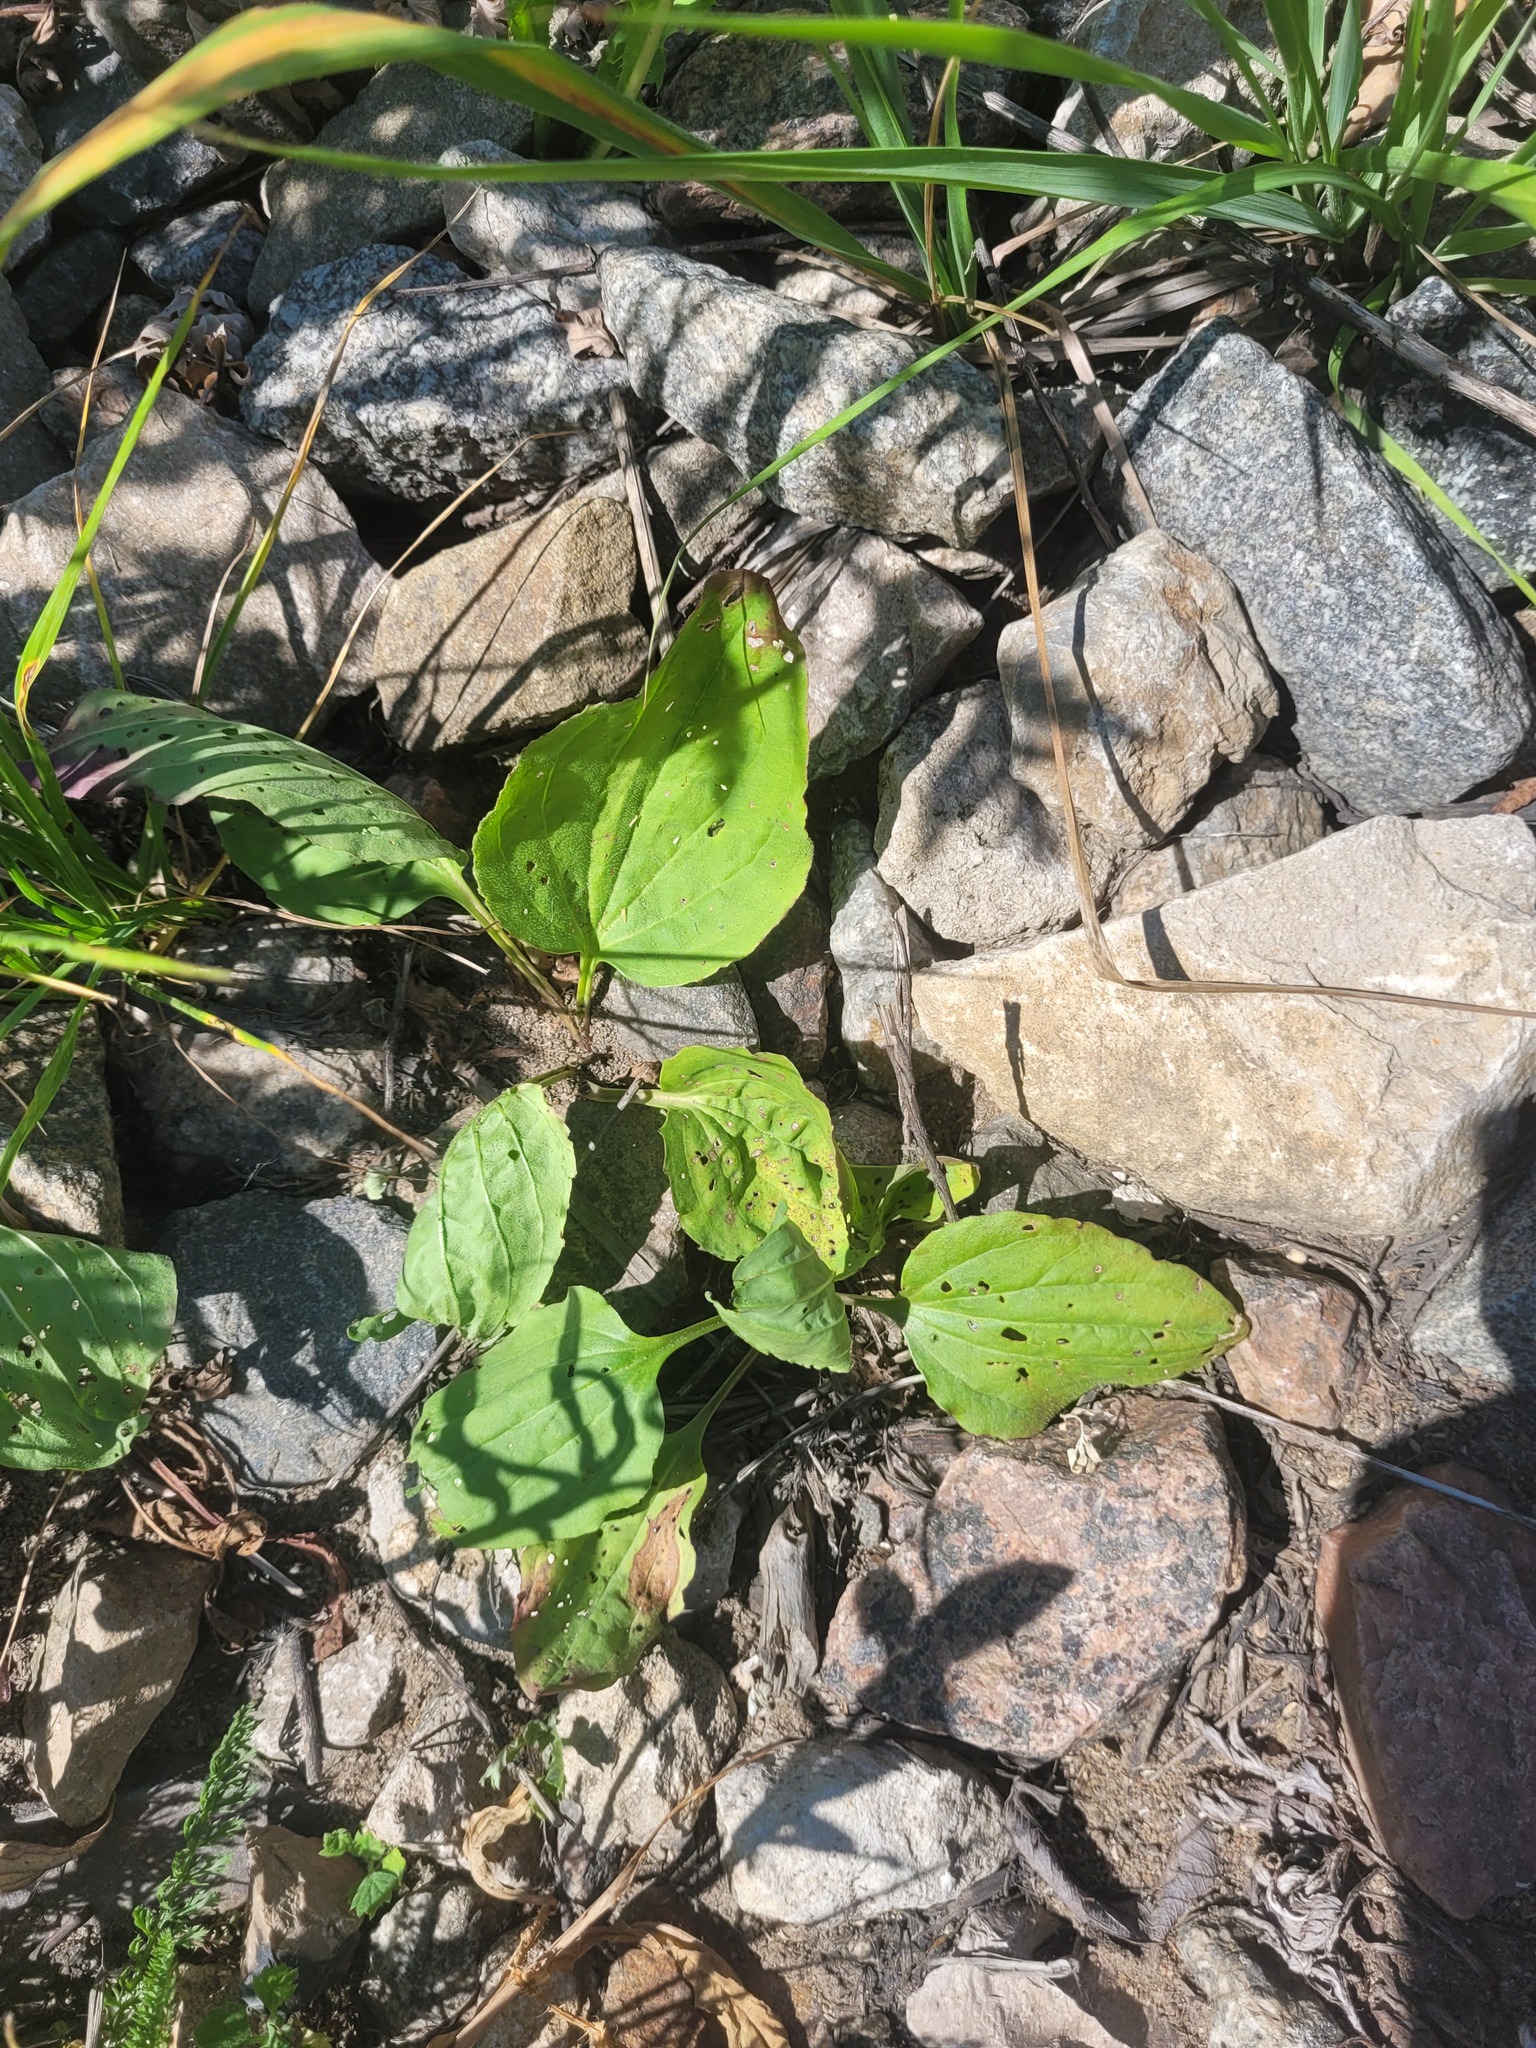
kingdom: Plantae
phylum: Tracheophyta
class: Magnoliopsida
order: Lamiales
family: Plantaginaceae
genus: Plantago
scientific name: Plantago major
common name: Common plantain
